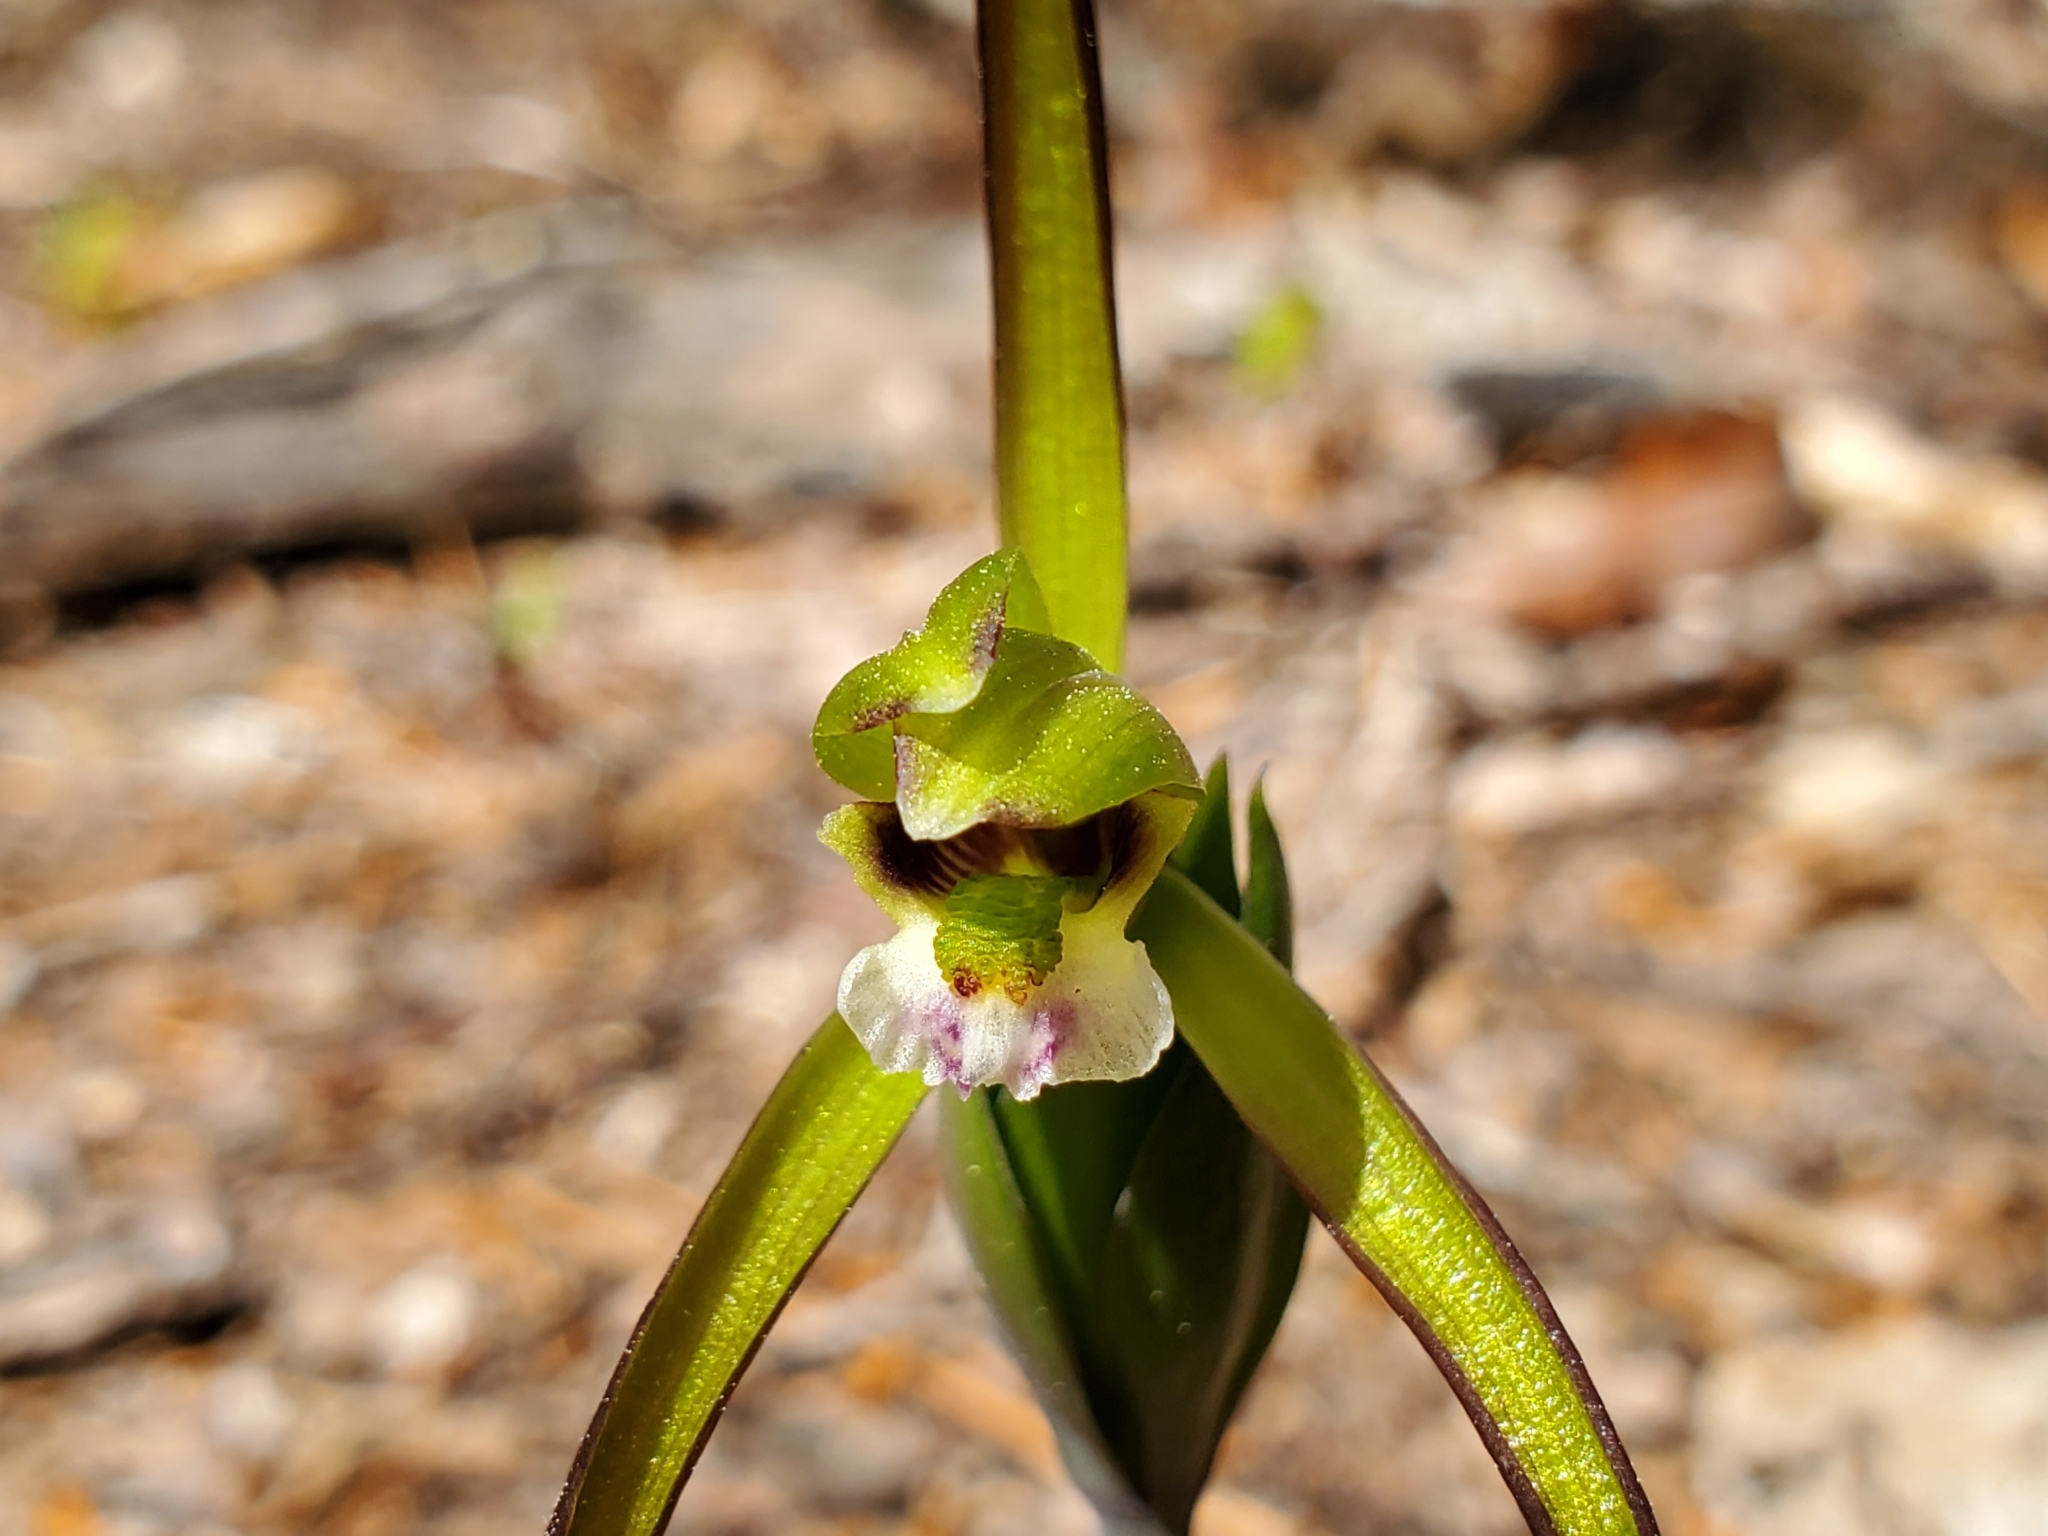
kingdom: Plantae
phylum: Tracheophyta
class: Liliopsida
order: Asparagales
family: Orchidaceae
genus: Isotria
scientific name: Isotria verticillata
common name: Large whorled pogonia
